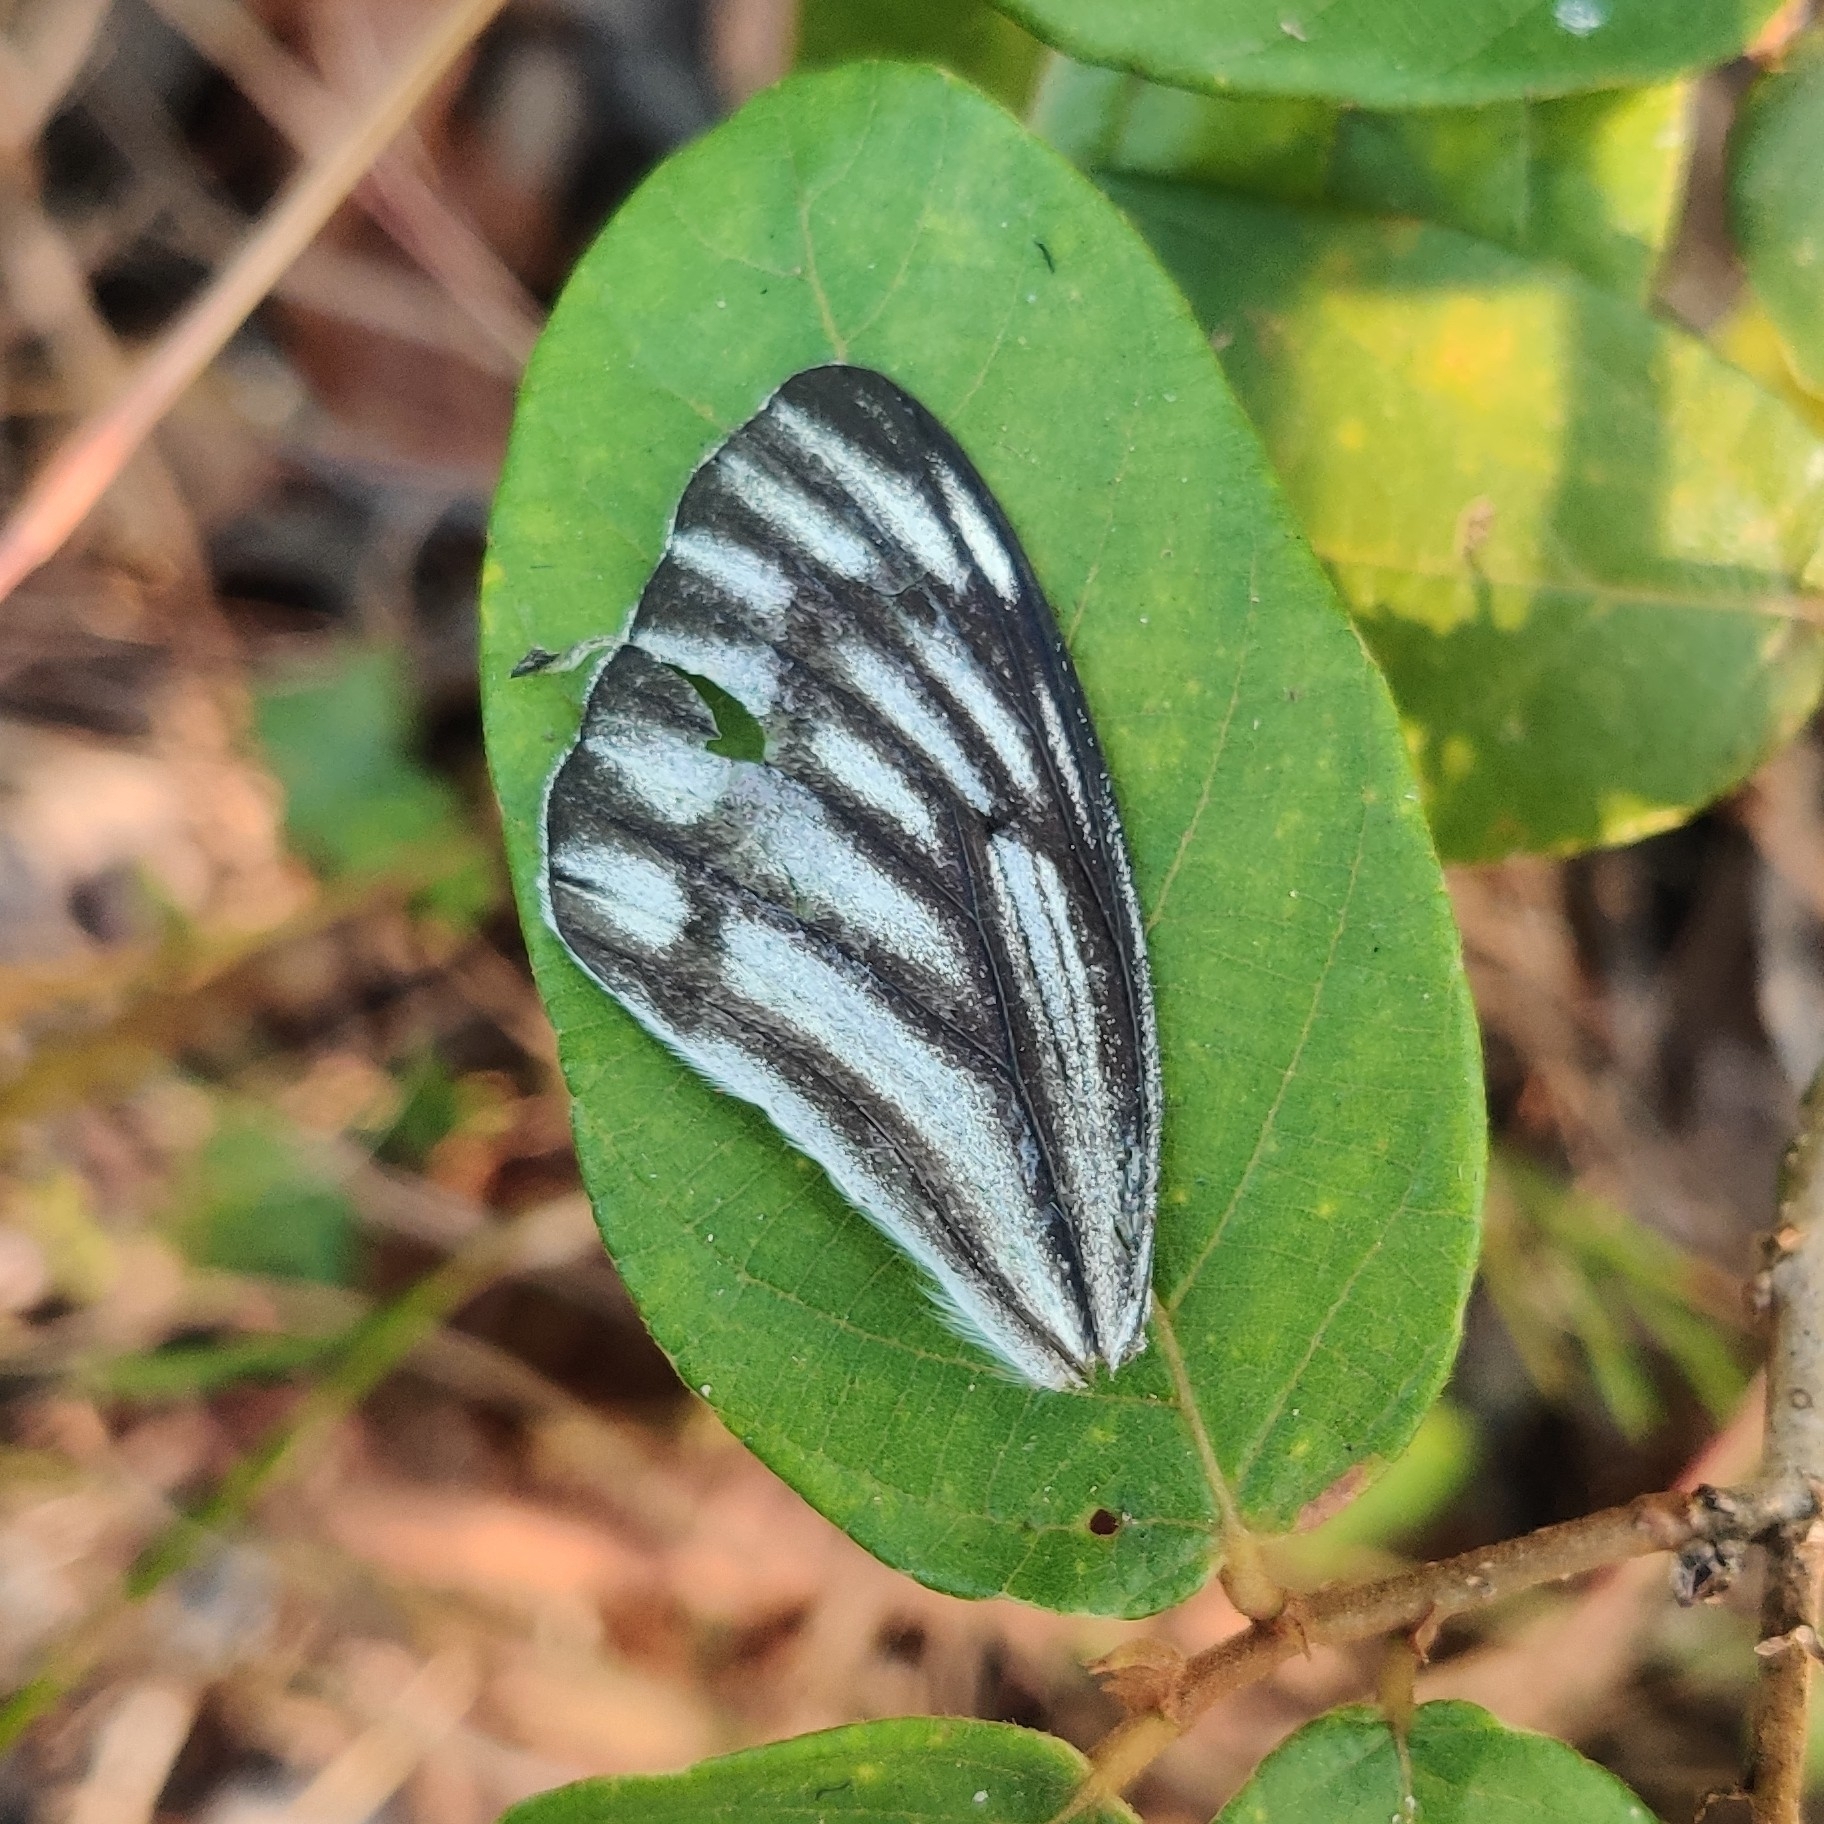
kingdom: Animalia
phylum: Arthropoda
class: Insecta
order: Lepidoptera
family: Pieridae
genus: Delias
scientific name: Delias eucharis
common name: Common jezebel
